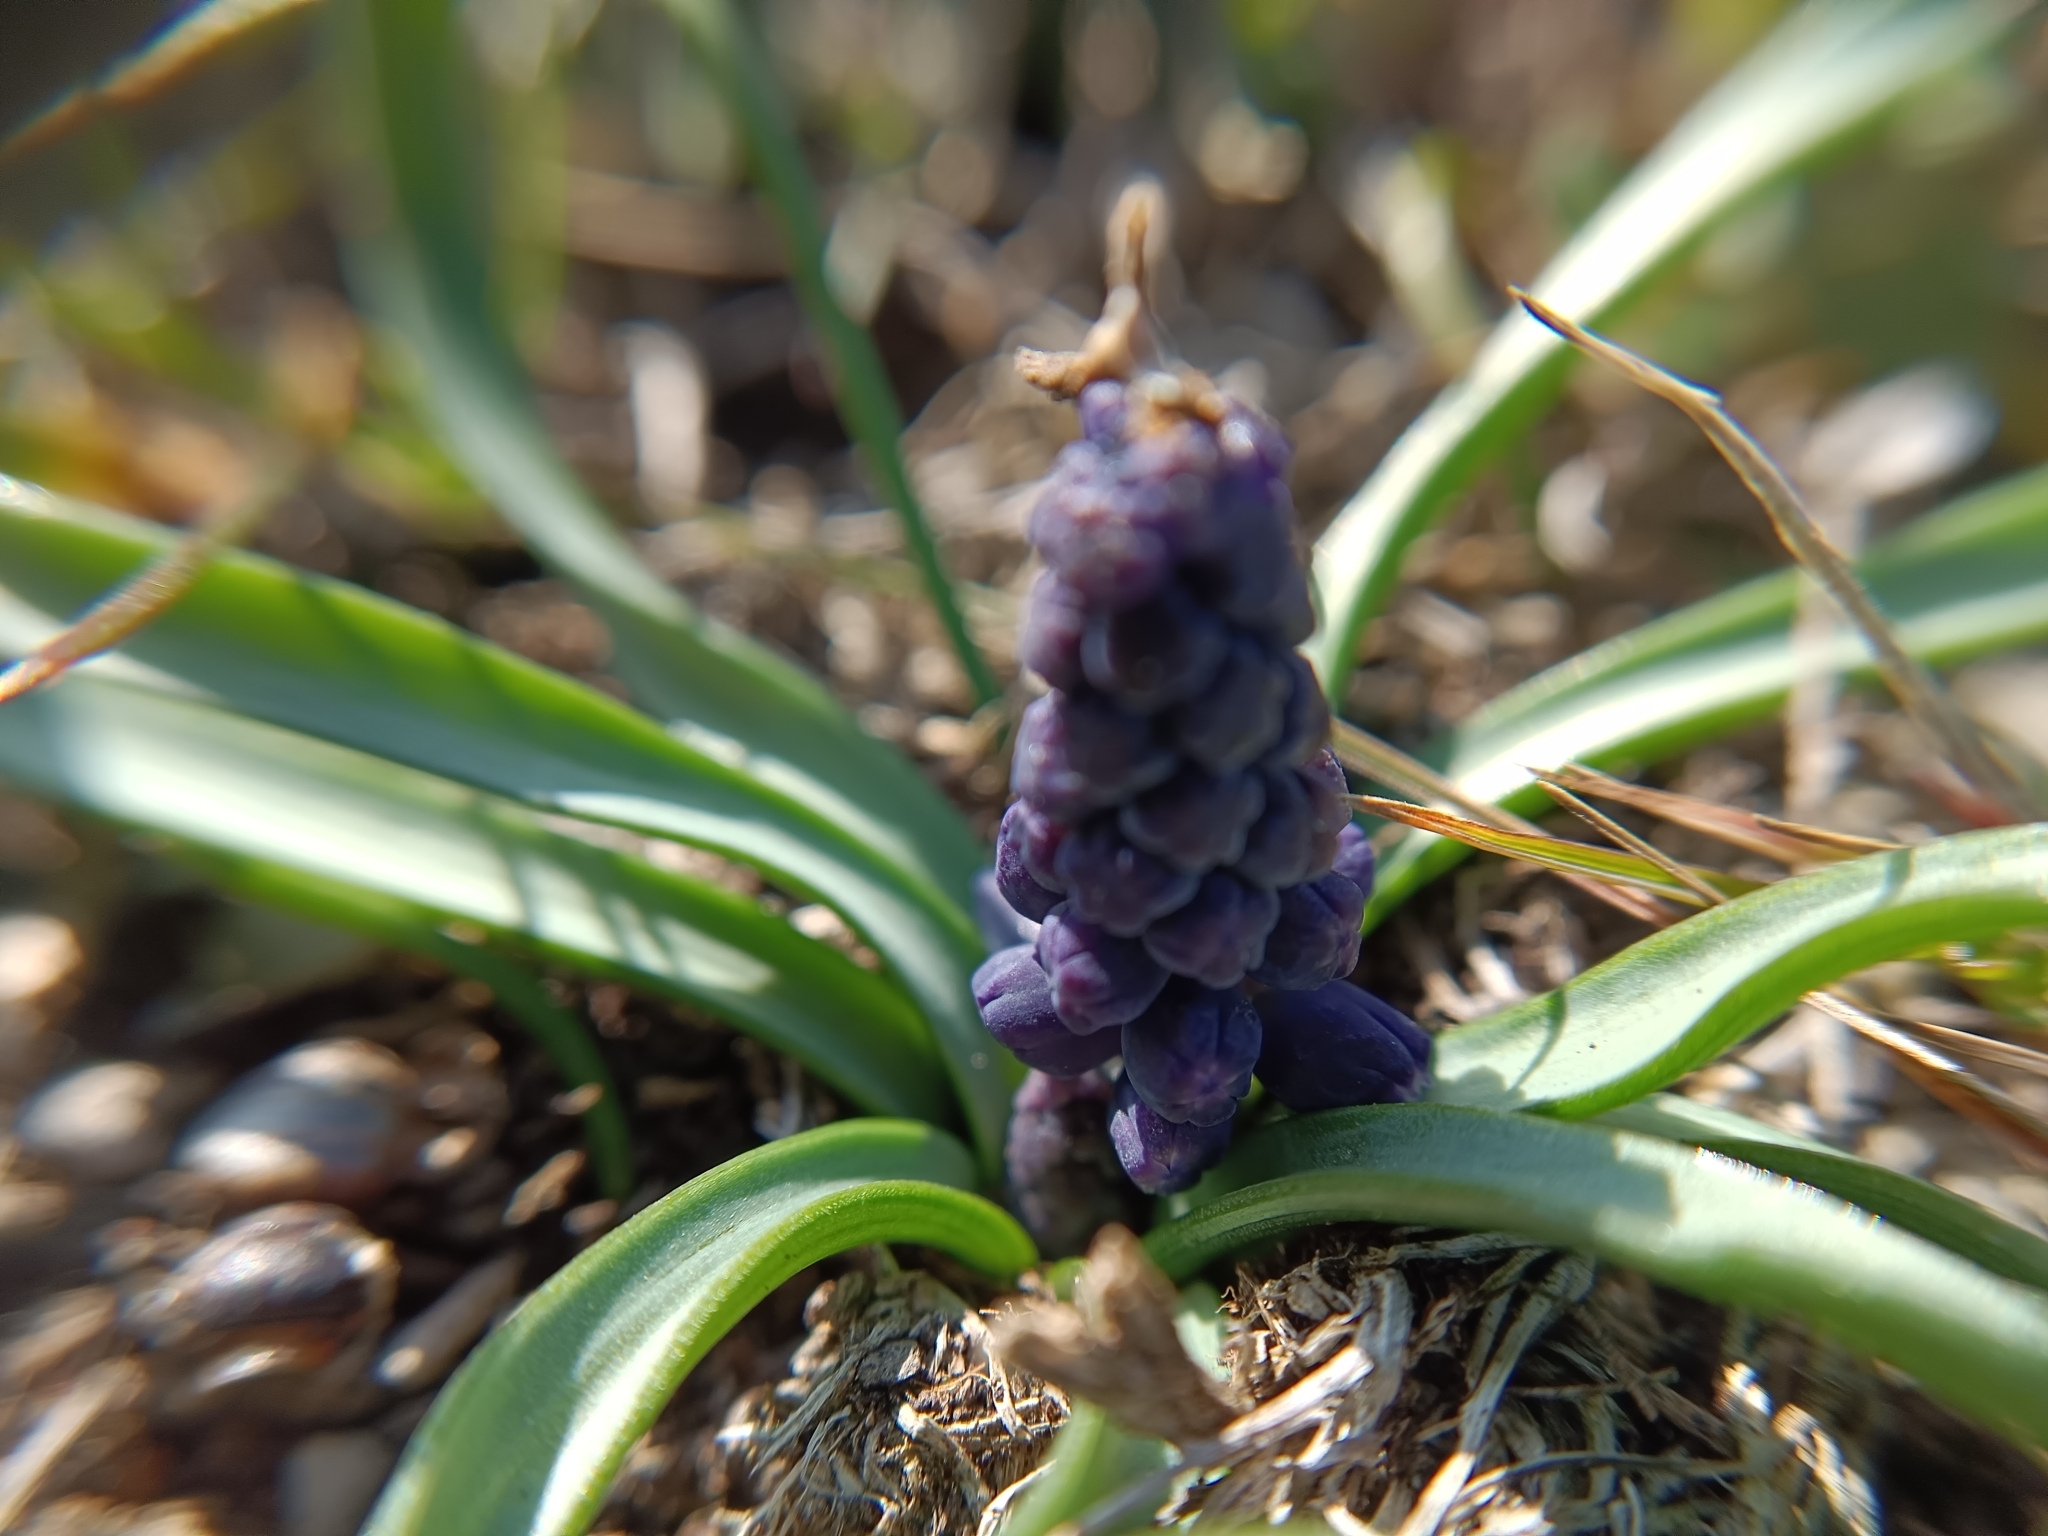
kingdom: Plantae
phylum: Tracheophyta
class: Liliopsida
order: Asparagales
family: Asparagaceae
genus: Muscari
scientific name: Muscari neglectum
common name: Grape-hyacinth
